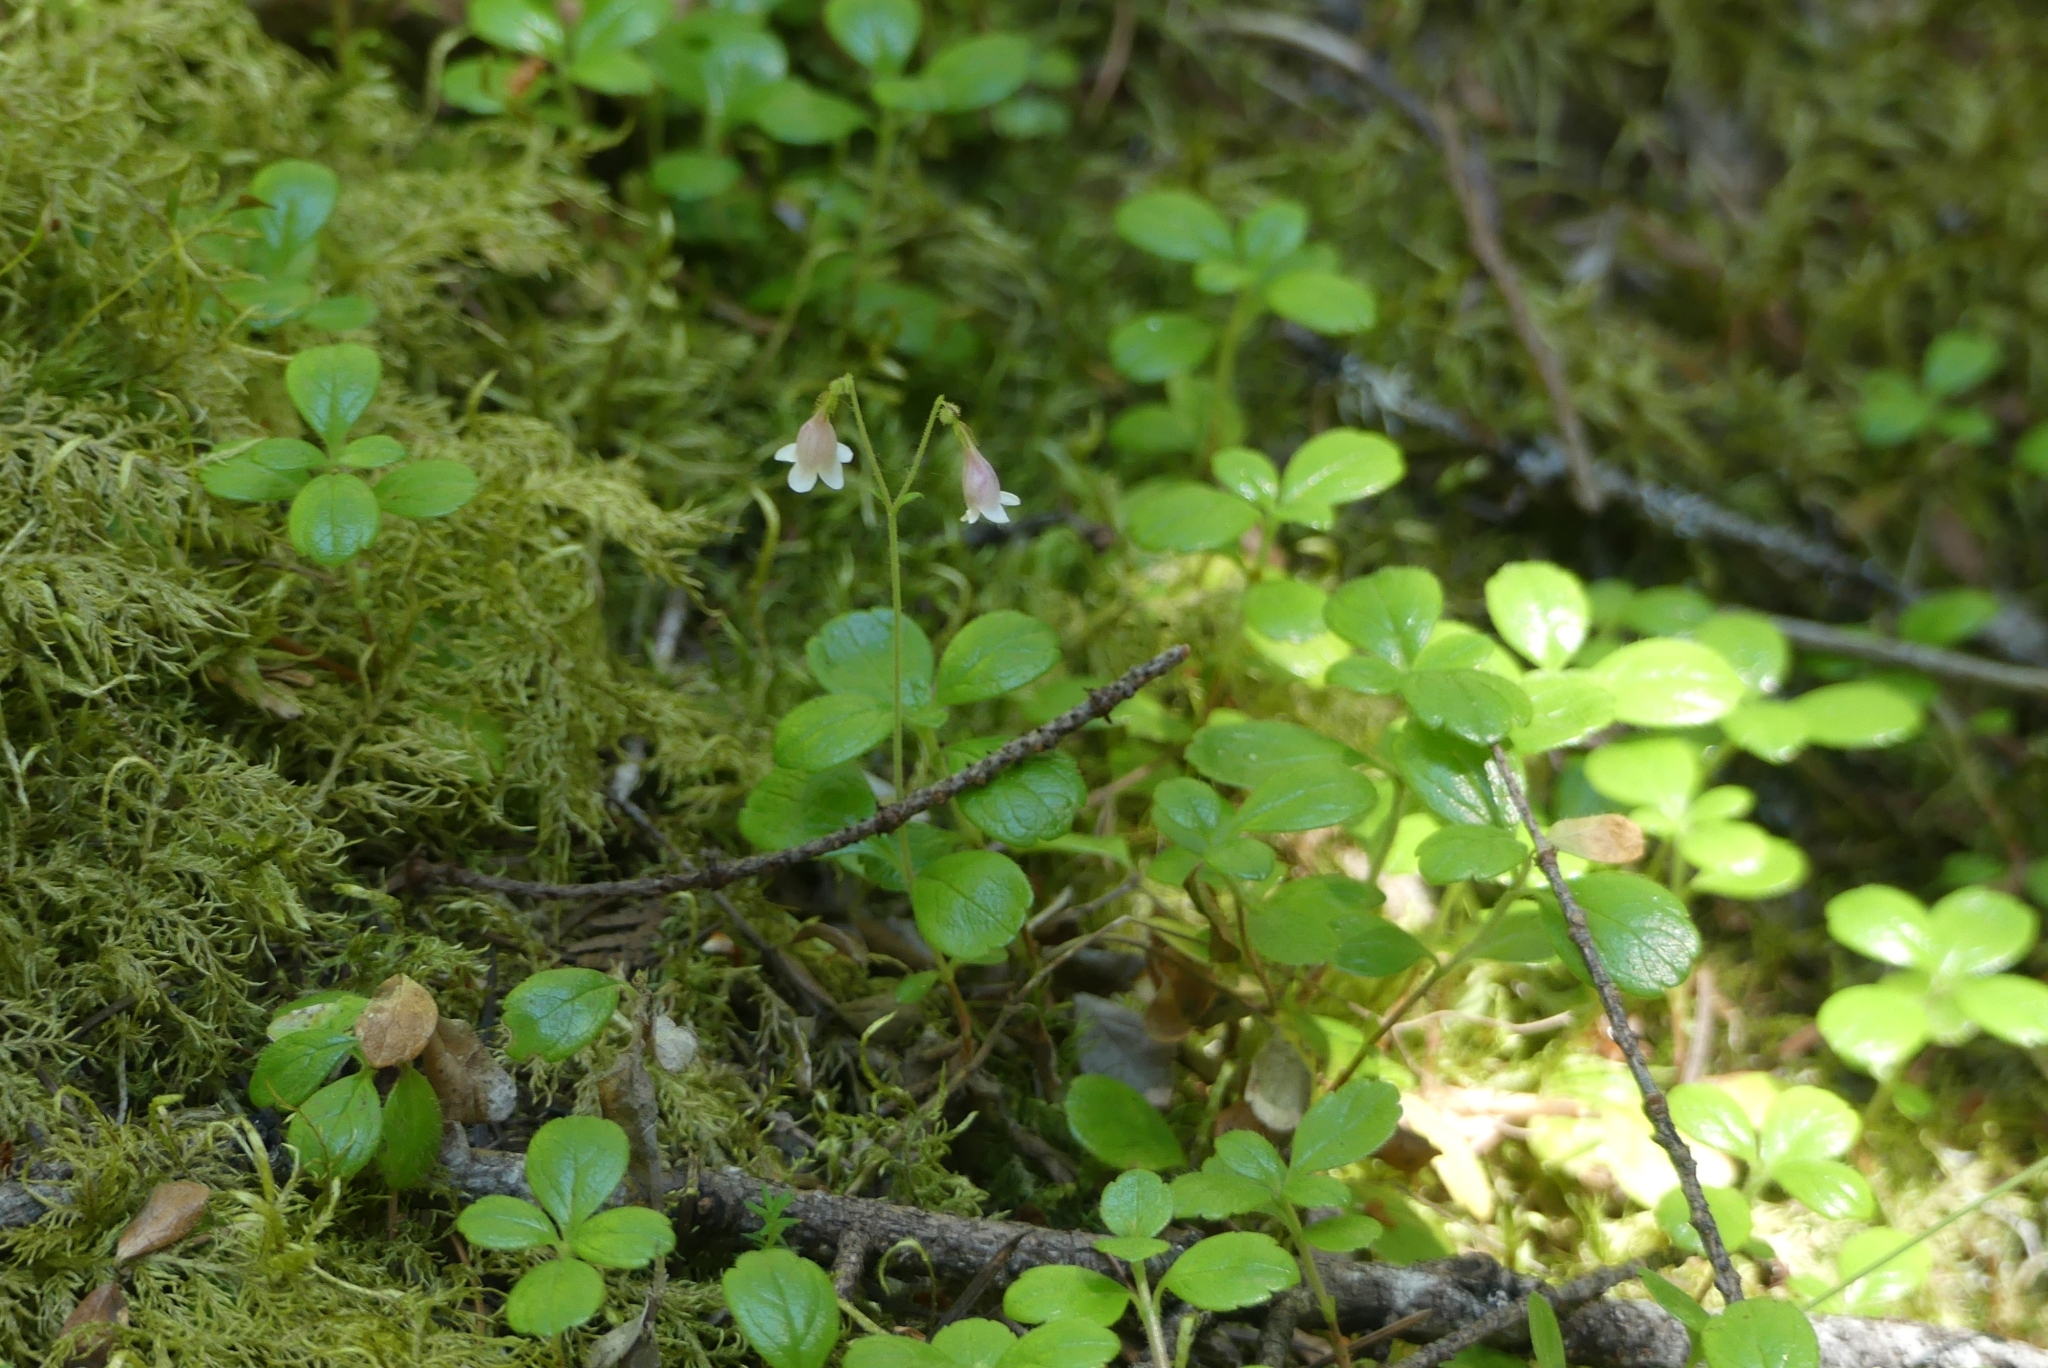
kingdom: Plantae
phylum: Tracheophyta
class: Magnoliopsida
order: Dipsacales
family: Caprifoliaceae
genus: Linnaea
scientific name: Linnaea borealis
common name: Twinflower
